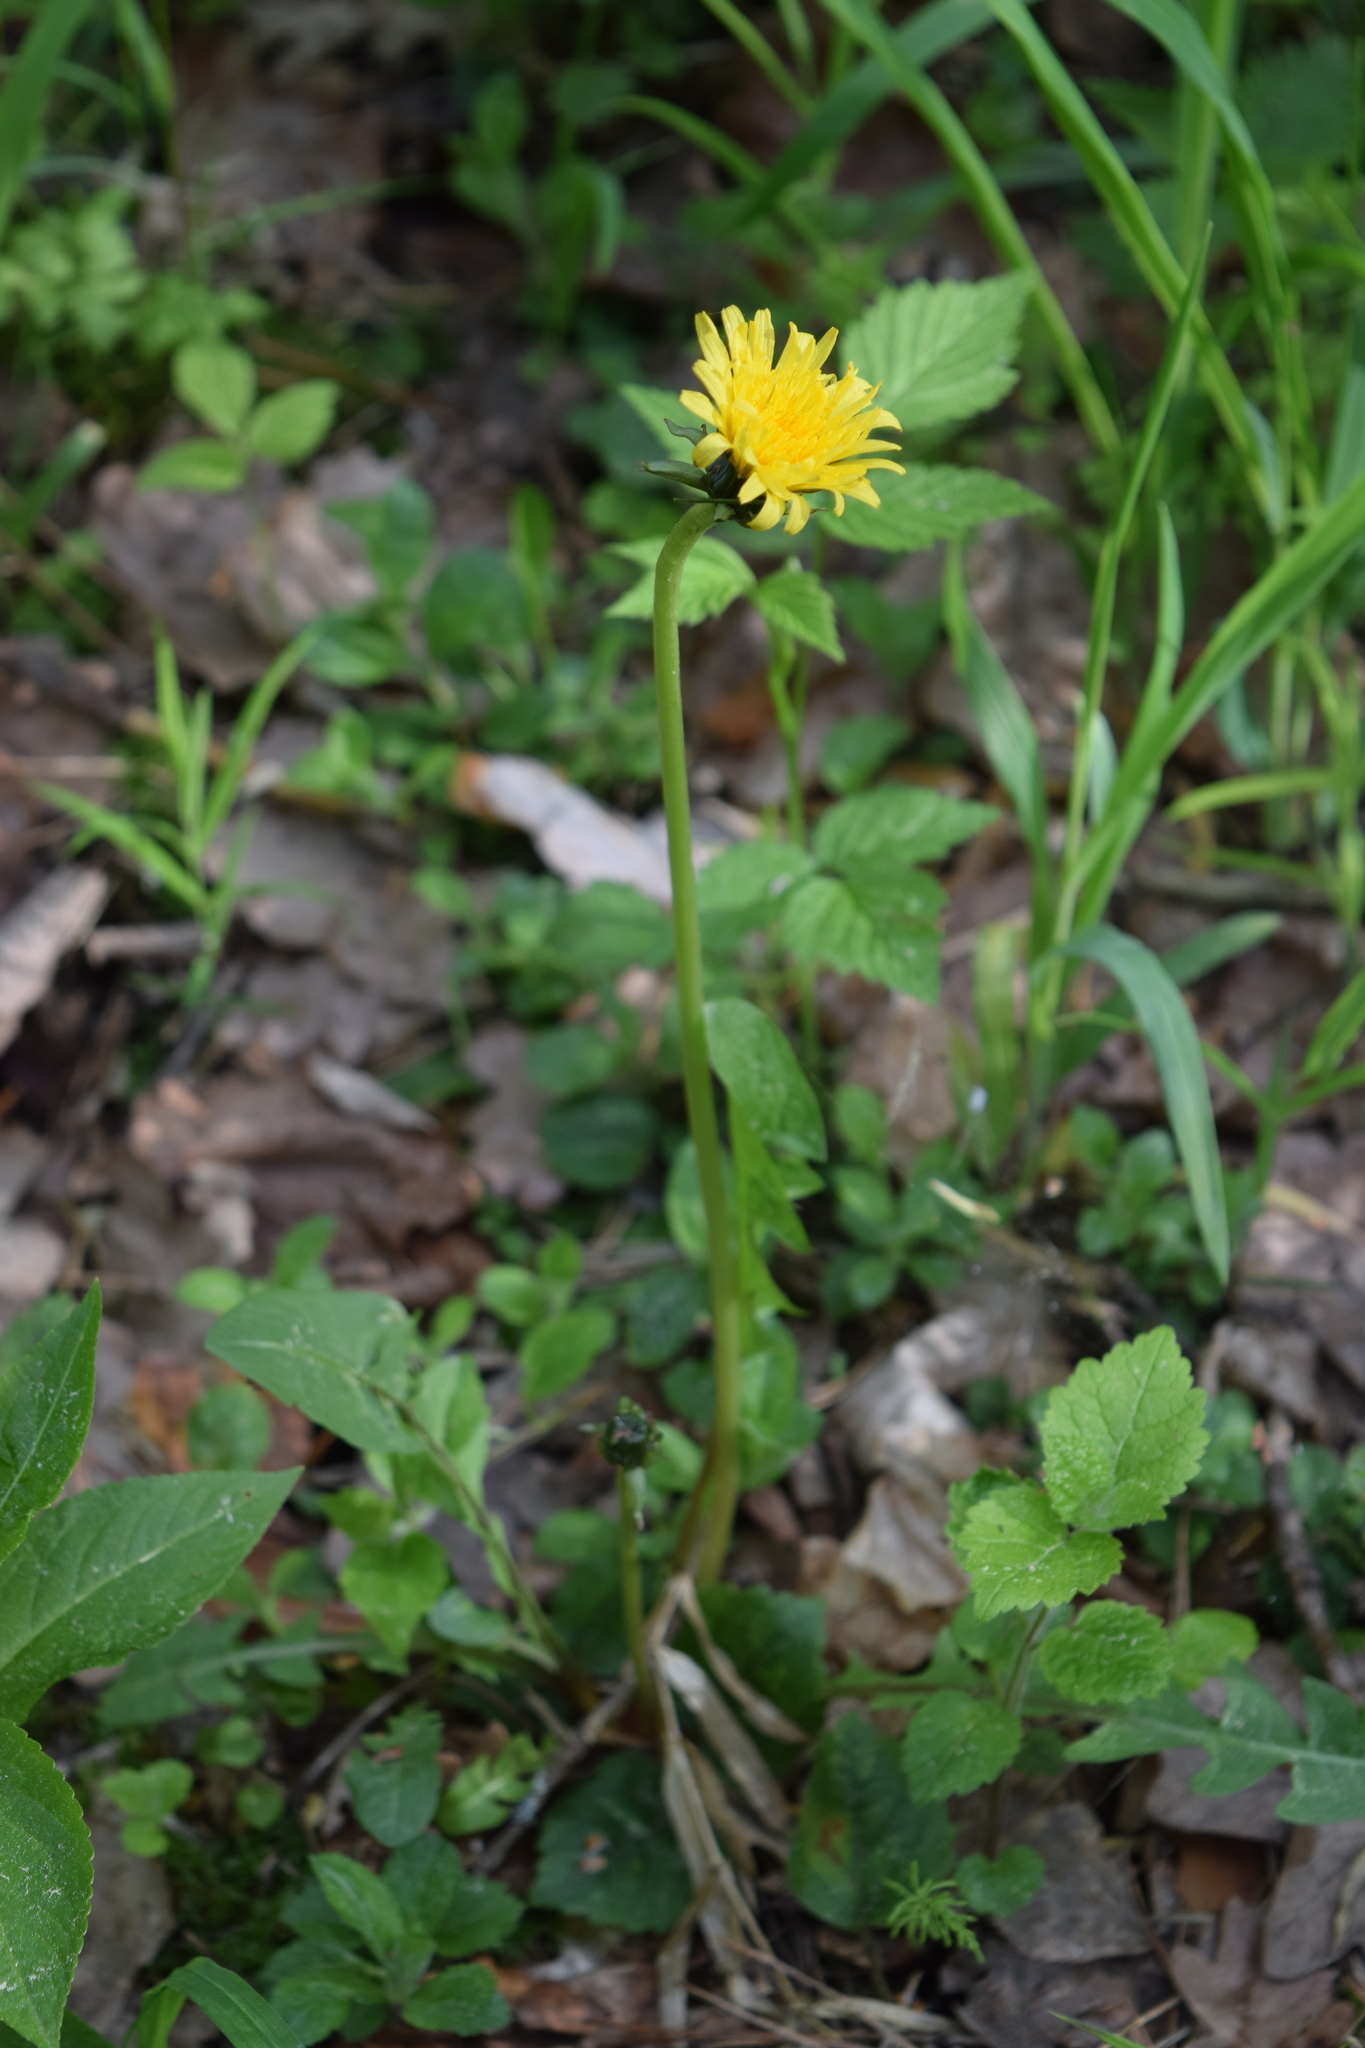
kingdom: Plantae
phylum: Tracheophyta
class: Magnoliopsida
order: Asterales
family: Asteraceae
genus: Taraxacum
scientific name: Taraxacum officinale
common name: Common dandelion
